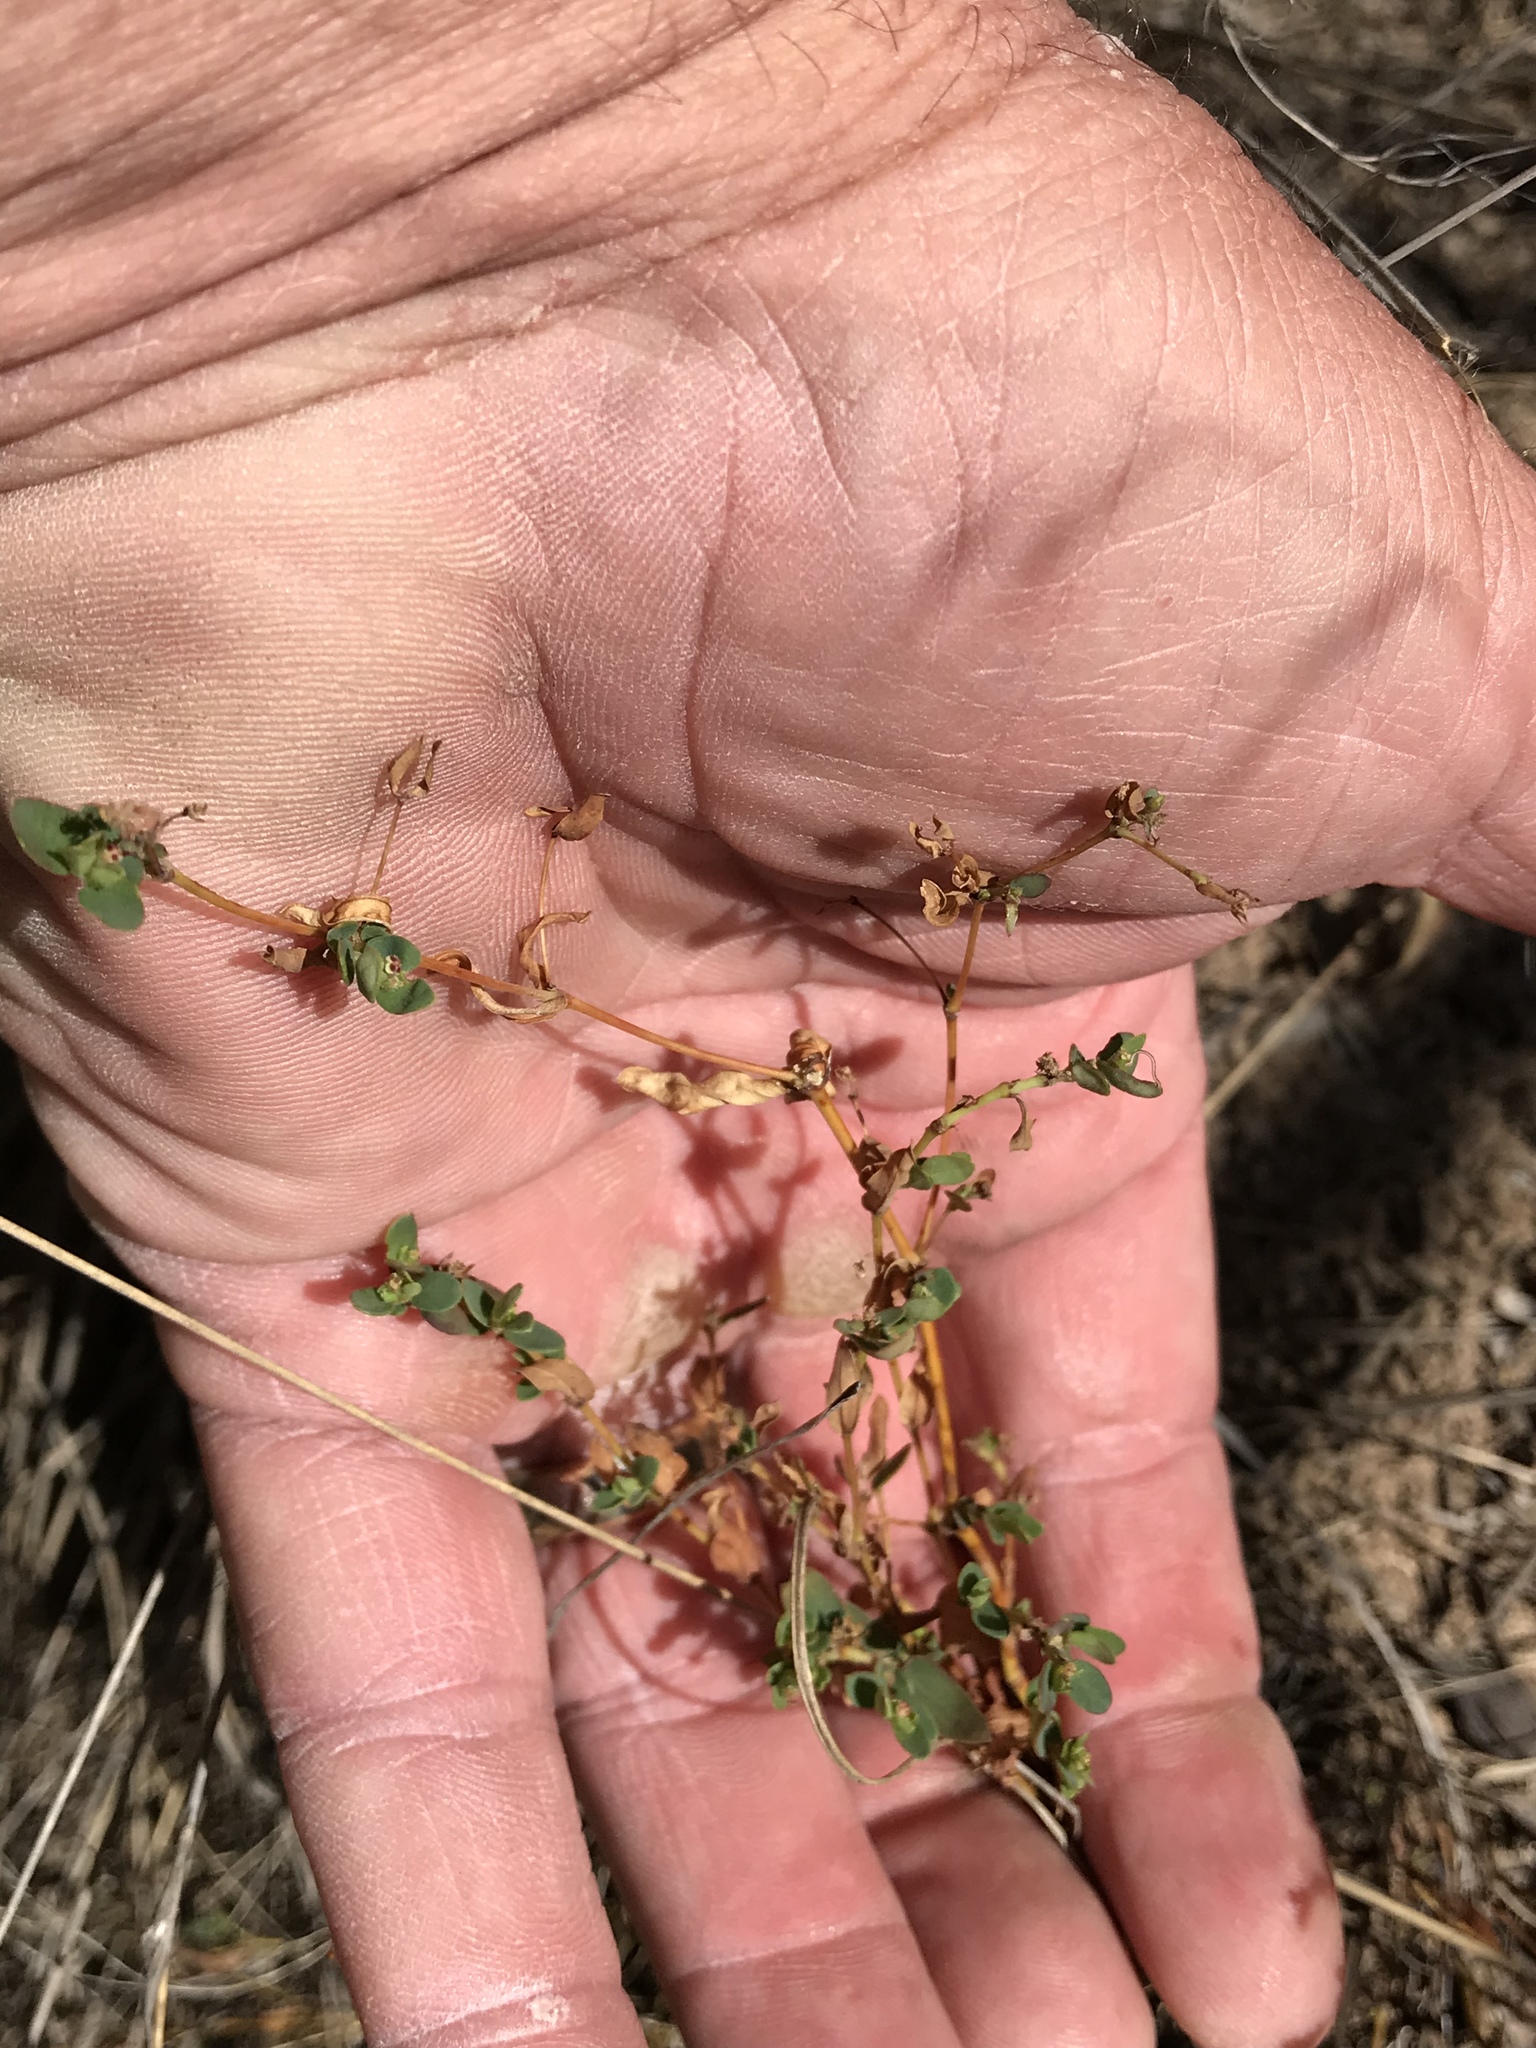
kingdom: Plantae
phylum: Tracheophyta
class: Magnoliopsida
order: Malpighiales
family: Euphorbiaceae
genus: Euphorbia
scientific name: Euphorbia polycarpa
